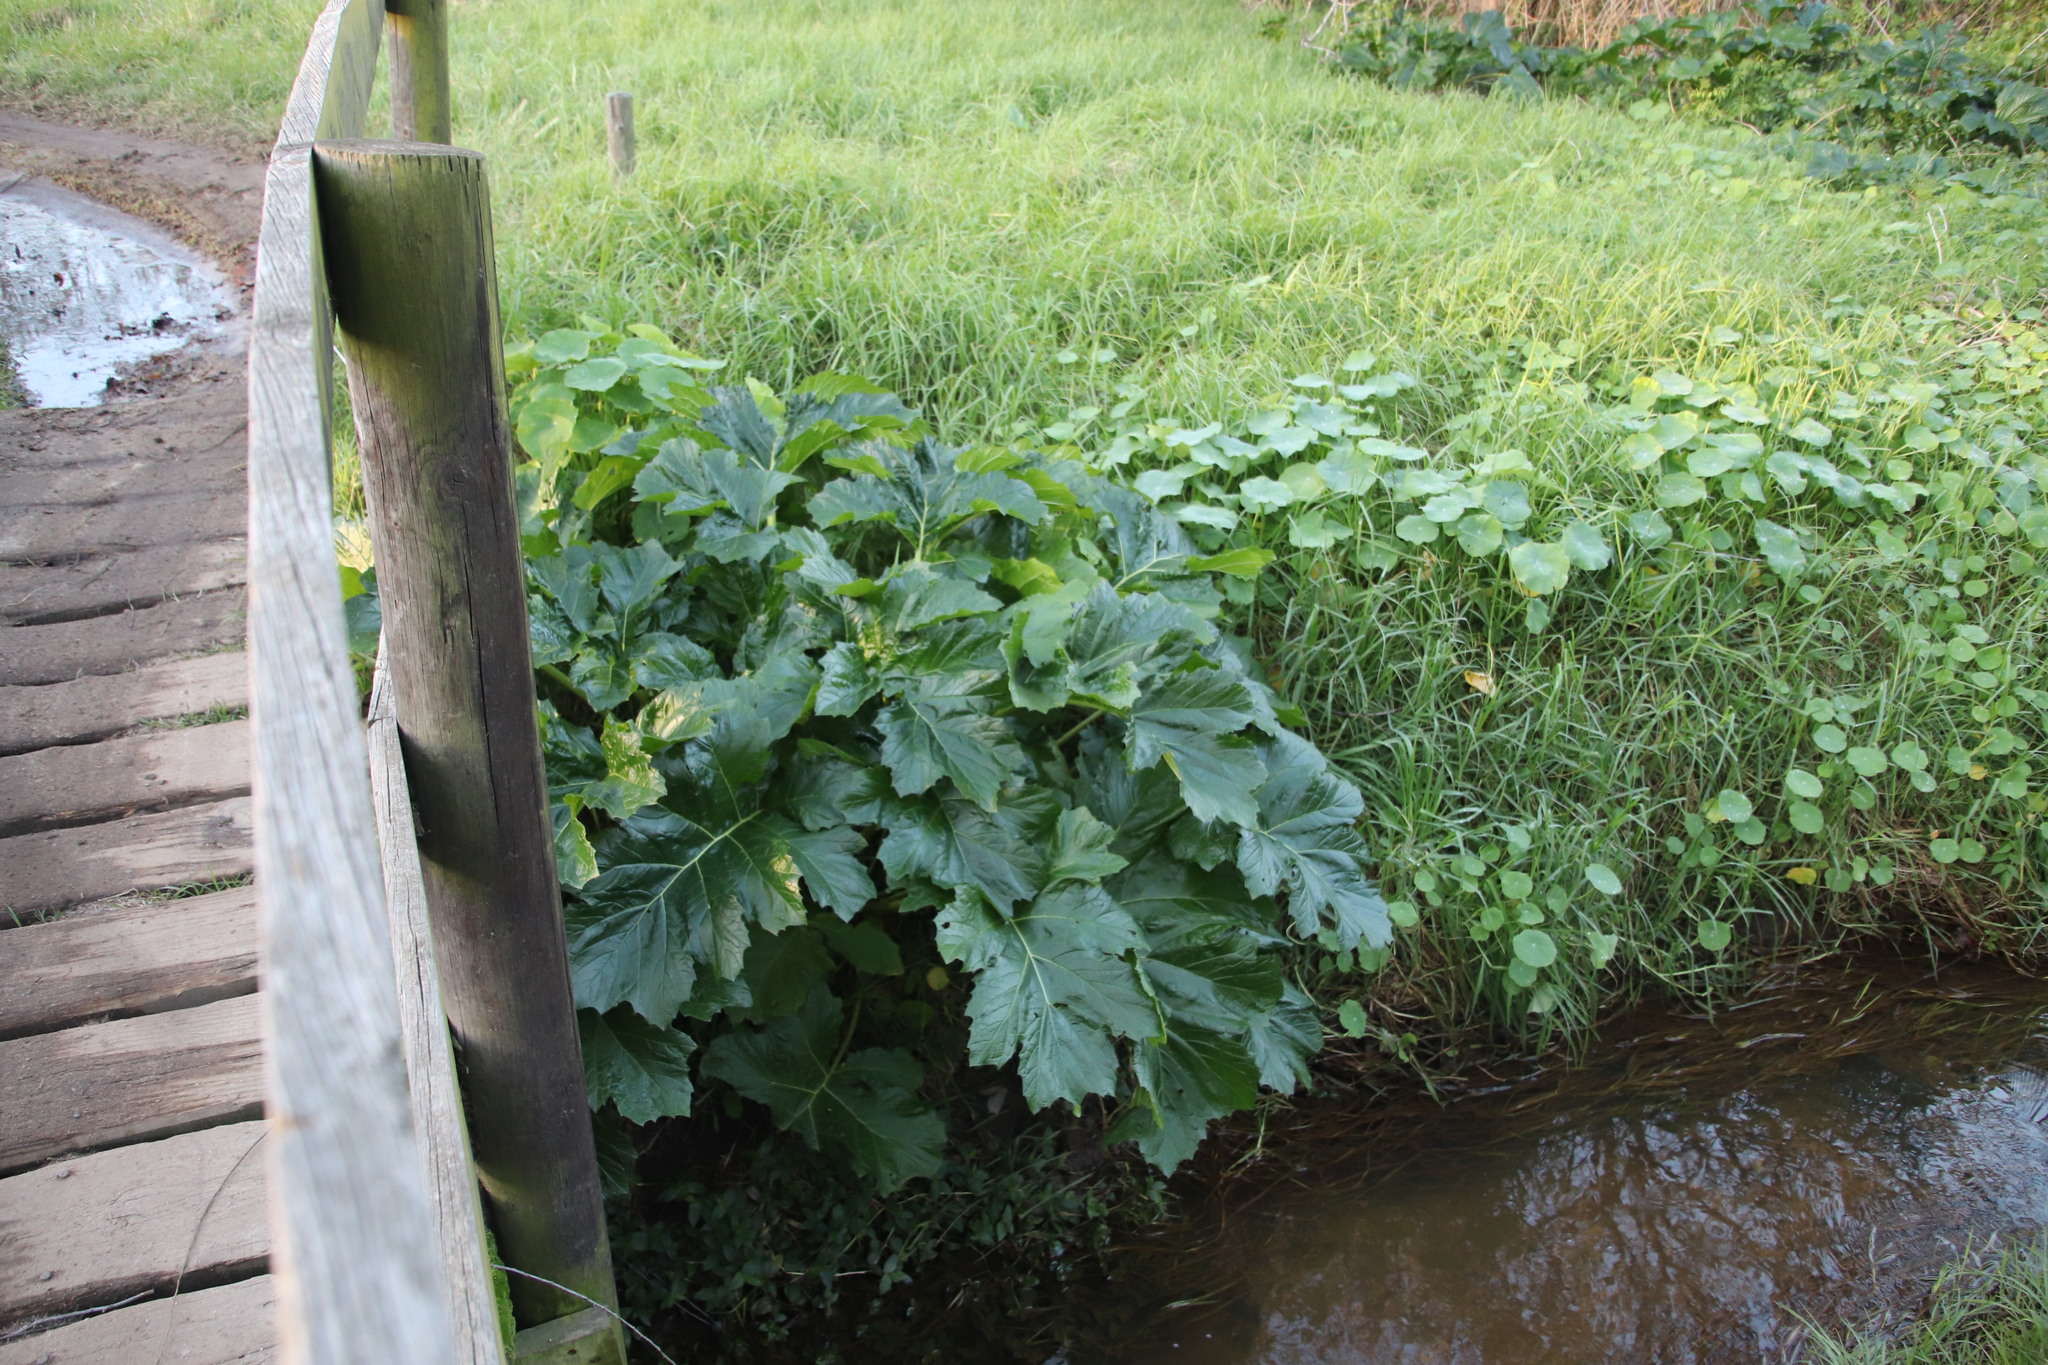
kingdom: Plantae
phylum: Tracheophyta
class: Magnoliopsida
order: Lamiales
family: Acanthaceae
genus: Acanthus
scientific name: Acanthus mollis
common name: Bear's-breech
